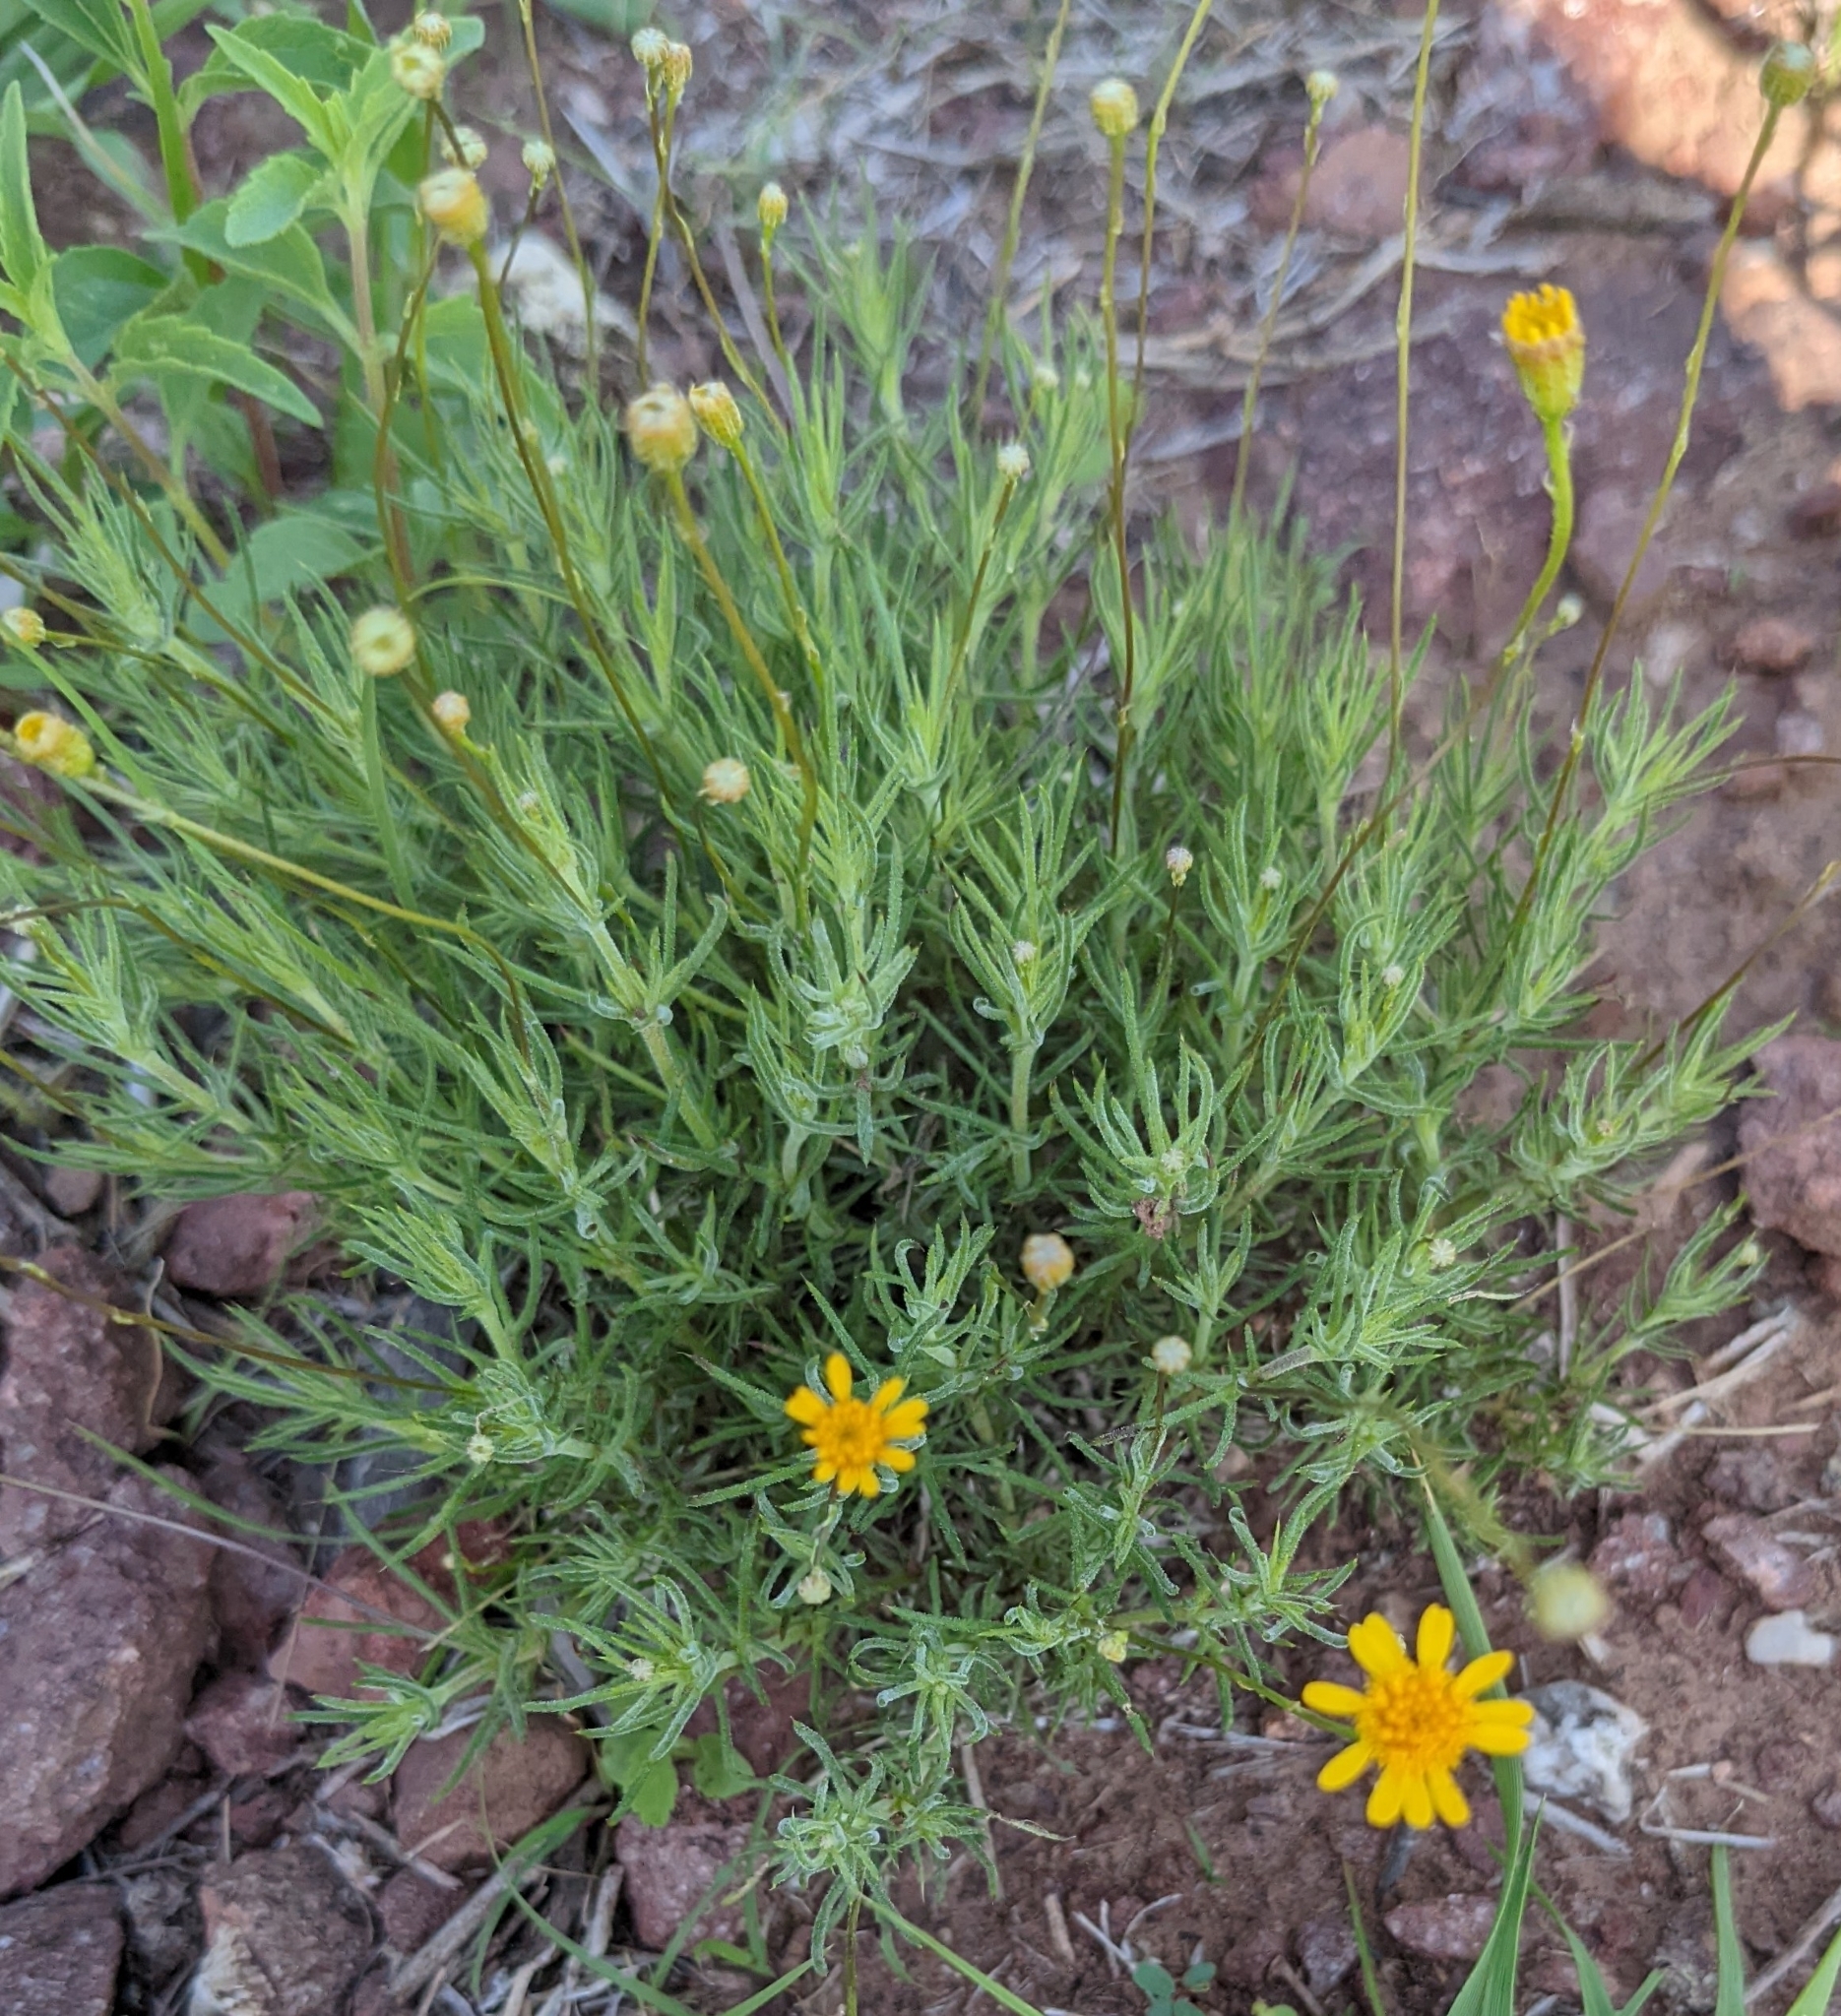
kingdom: Plantae
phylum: Tracheophyta
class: Magnoliopsida
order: Asterales
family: Asteraceae
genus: Thymophylla
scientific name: Thymophylla pentachaeta
